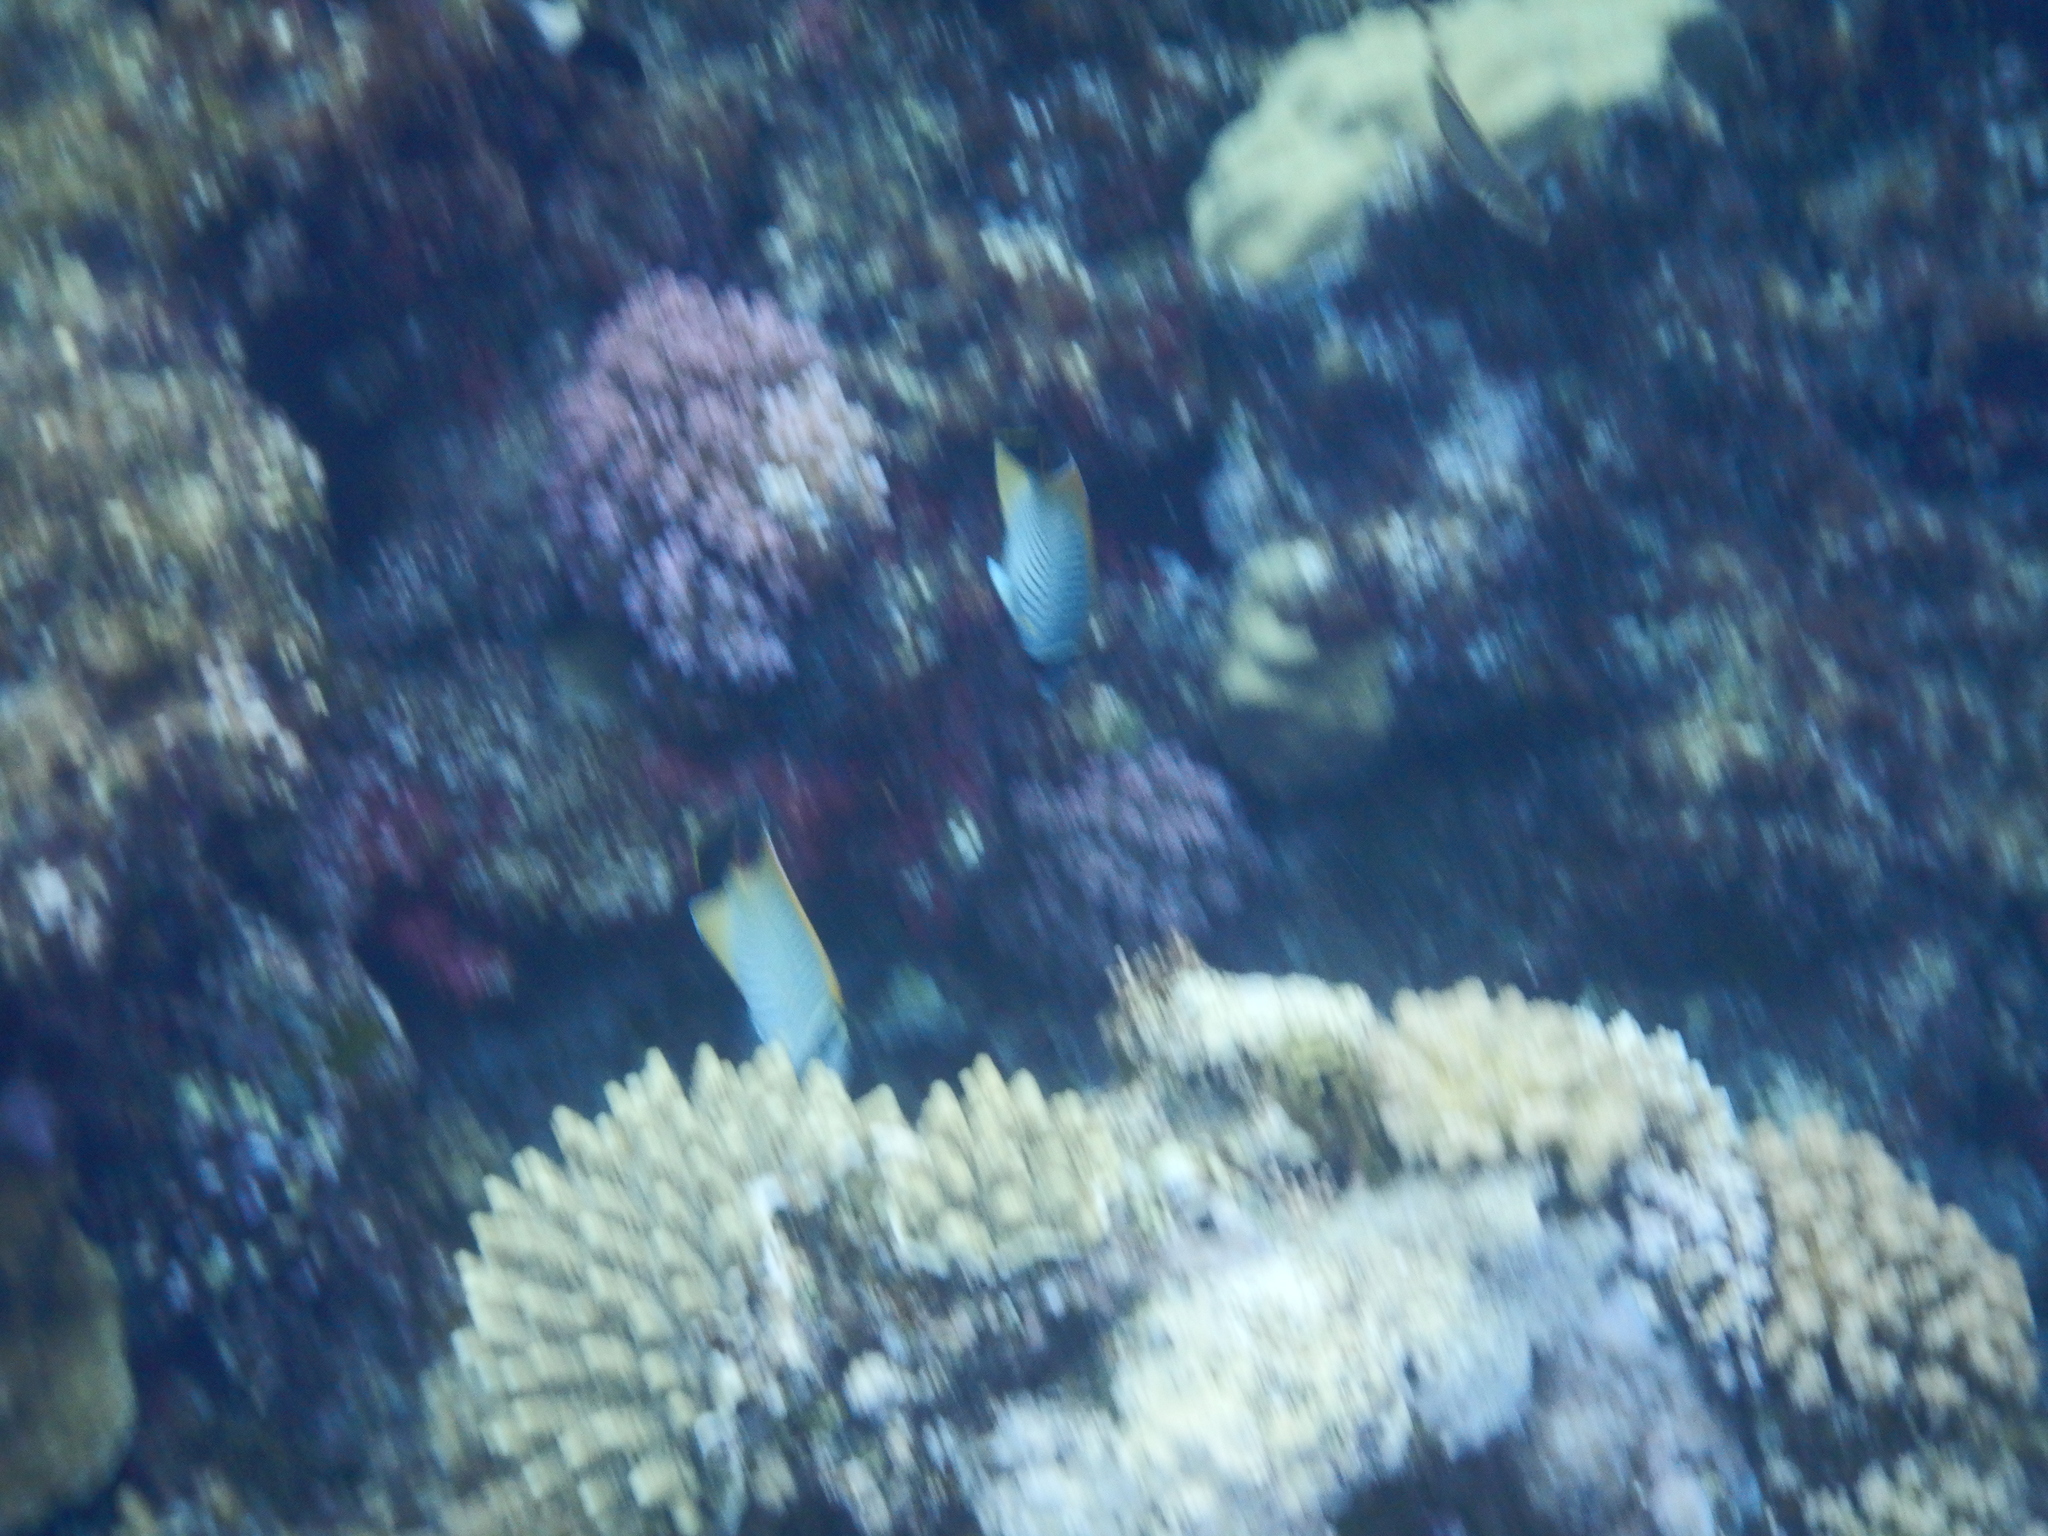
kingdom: Animalia
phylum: Chordata
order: Perciformes
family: Chaetodontidae
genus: Chaetodon
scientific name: Chaetodon trifascialis
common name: Chevroned butterflyfish
